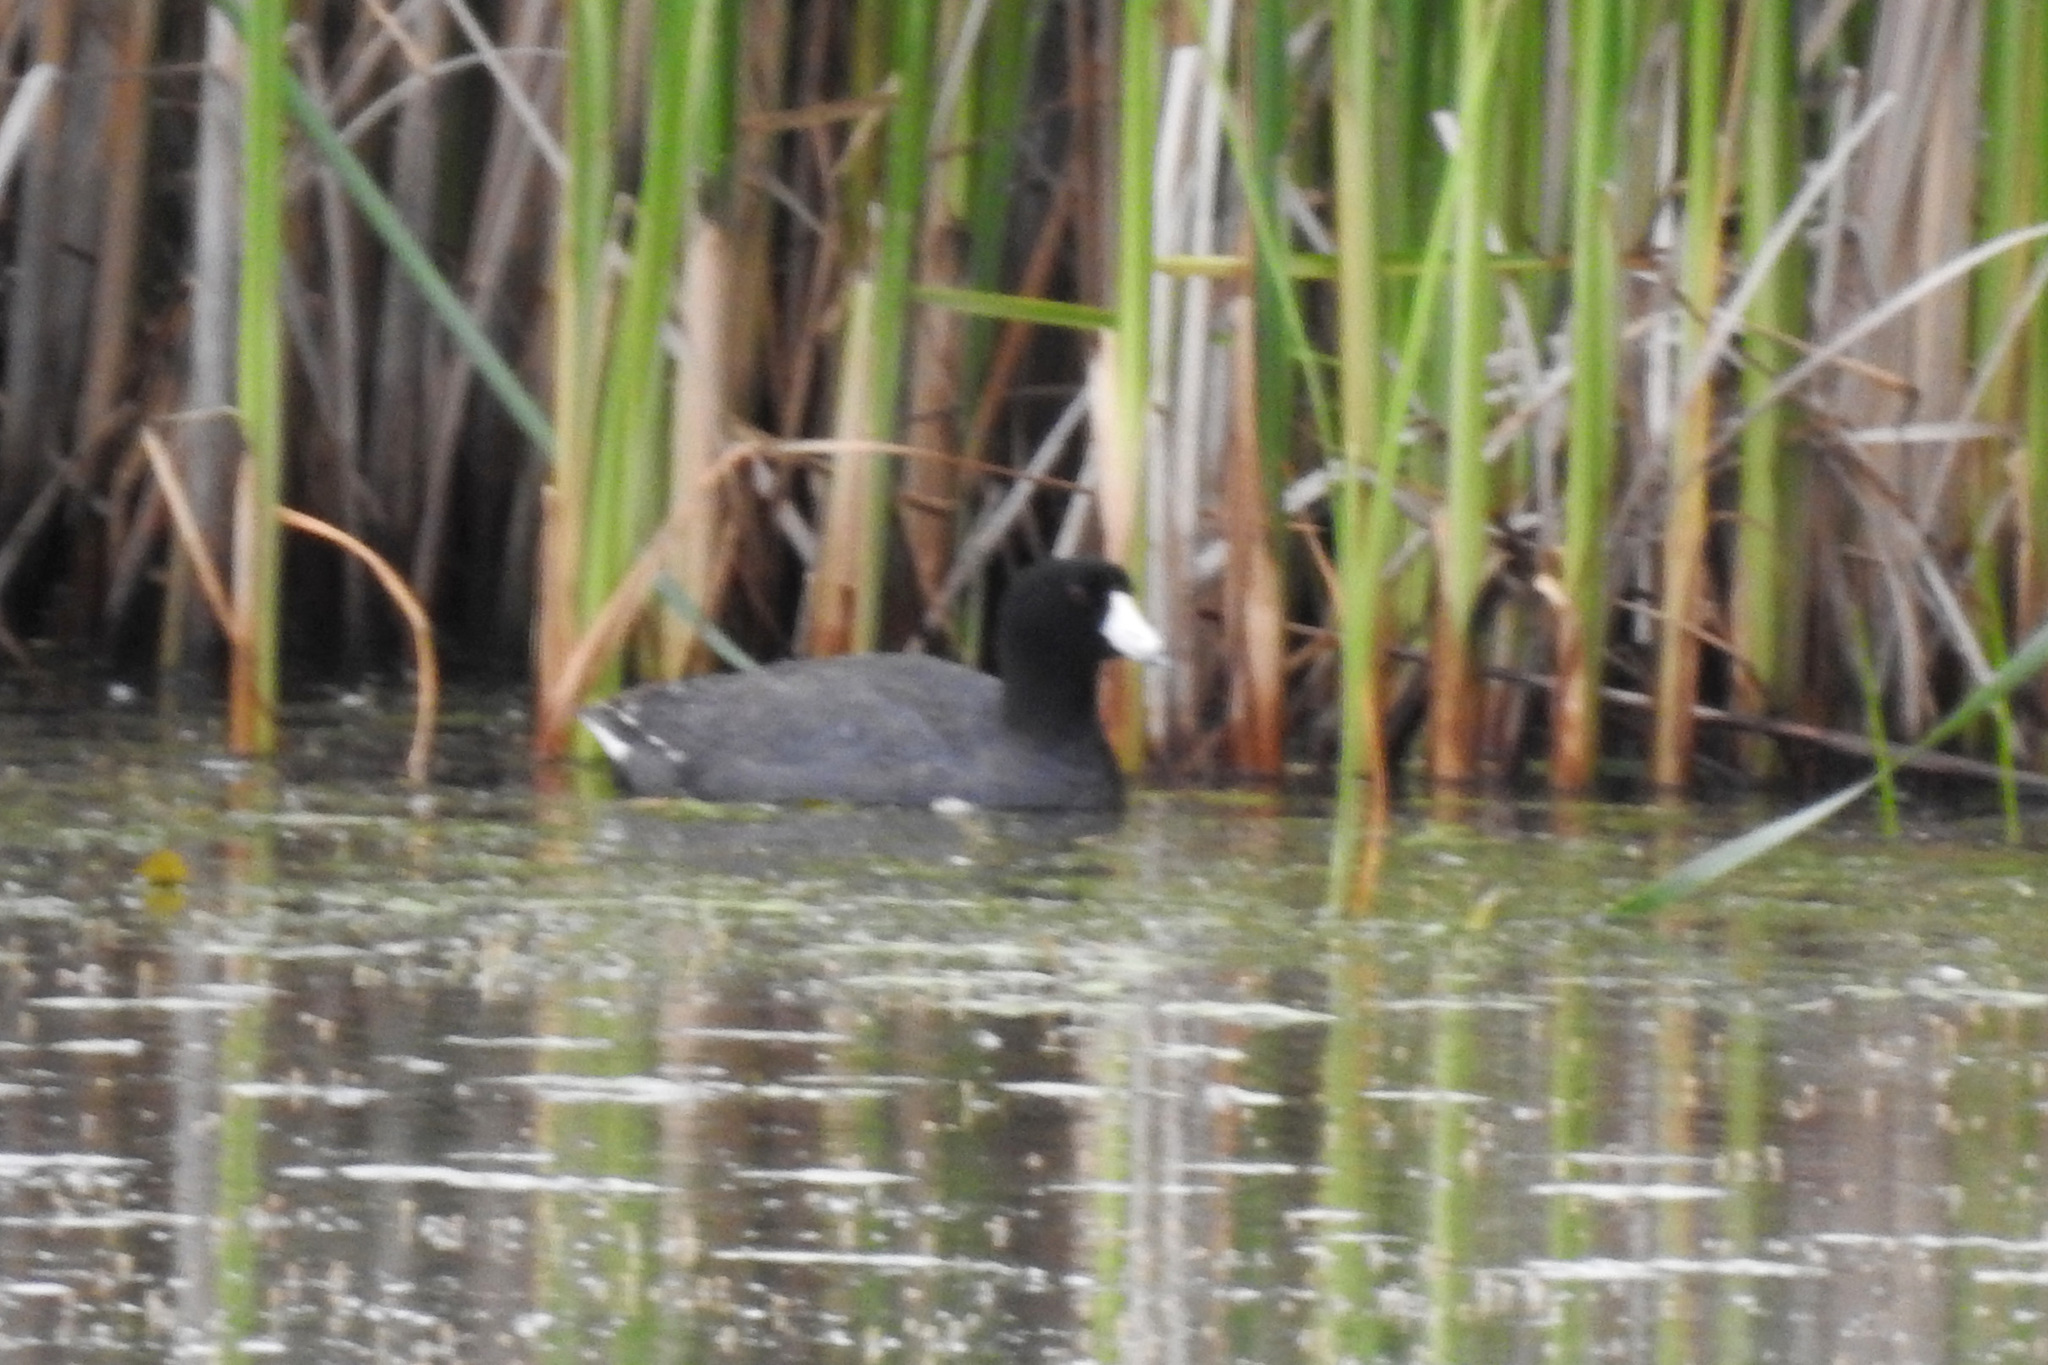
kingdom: Animalia
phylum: Chordata
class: Aves
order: Gruiformes
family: Rallidae
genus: Fulica
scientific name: Fulica americana
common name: American coot
